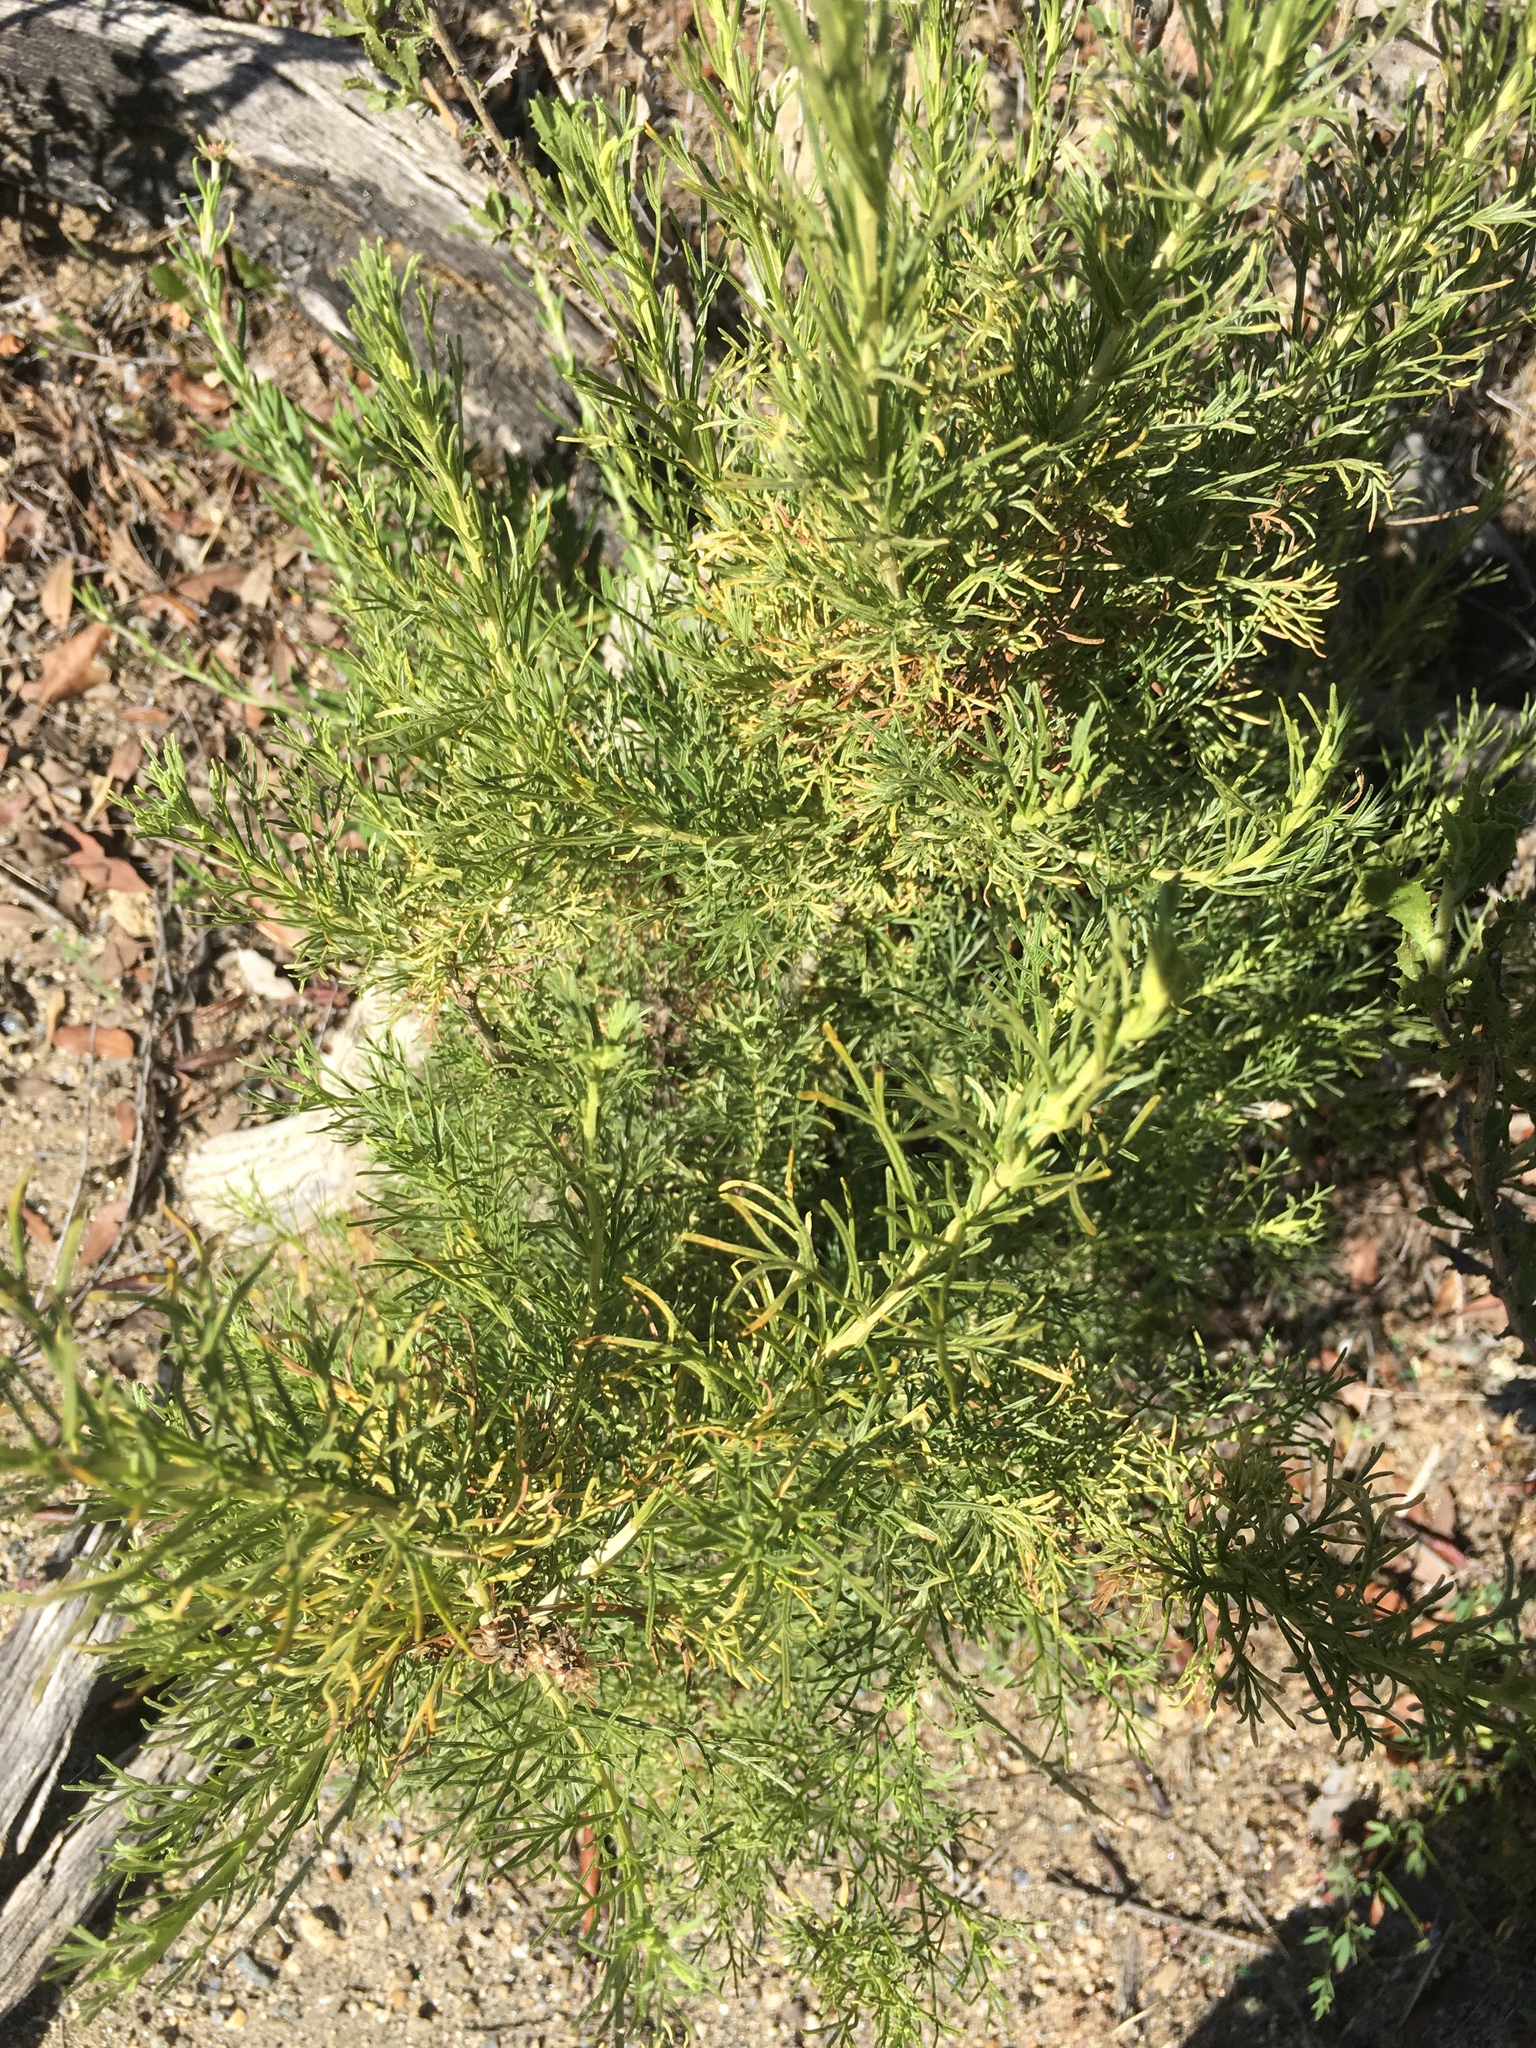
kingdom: Plantae
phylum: Tracheophyta
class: Magnoliopsida
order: Asterales
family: Asteraceae
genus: Artemisia
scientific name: Artemisia californica
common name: California sagebrush
